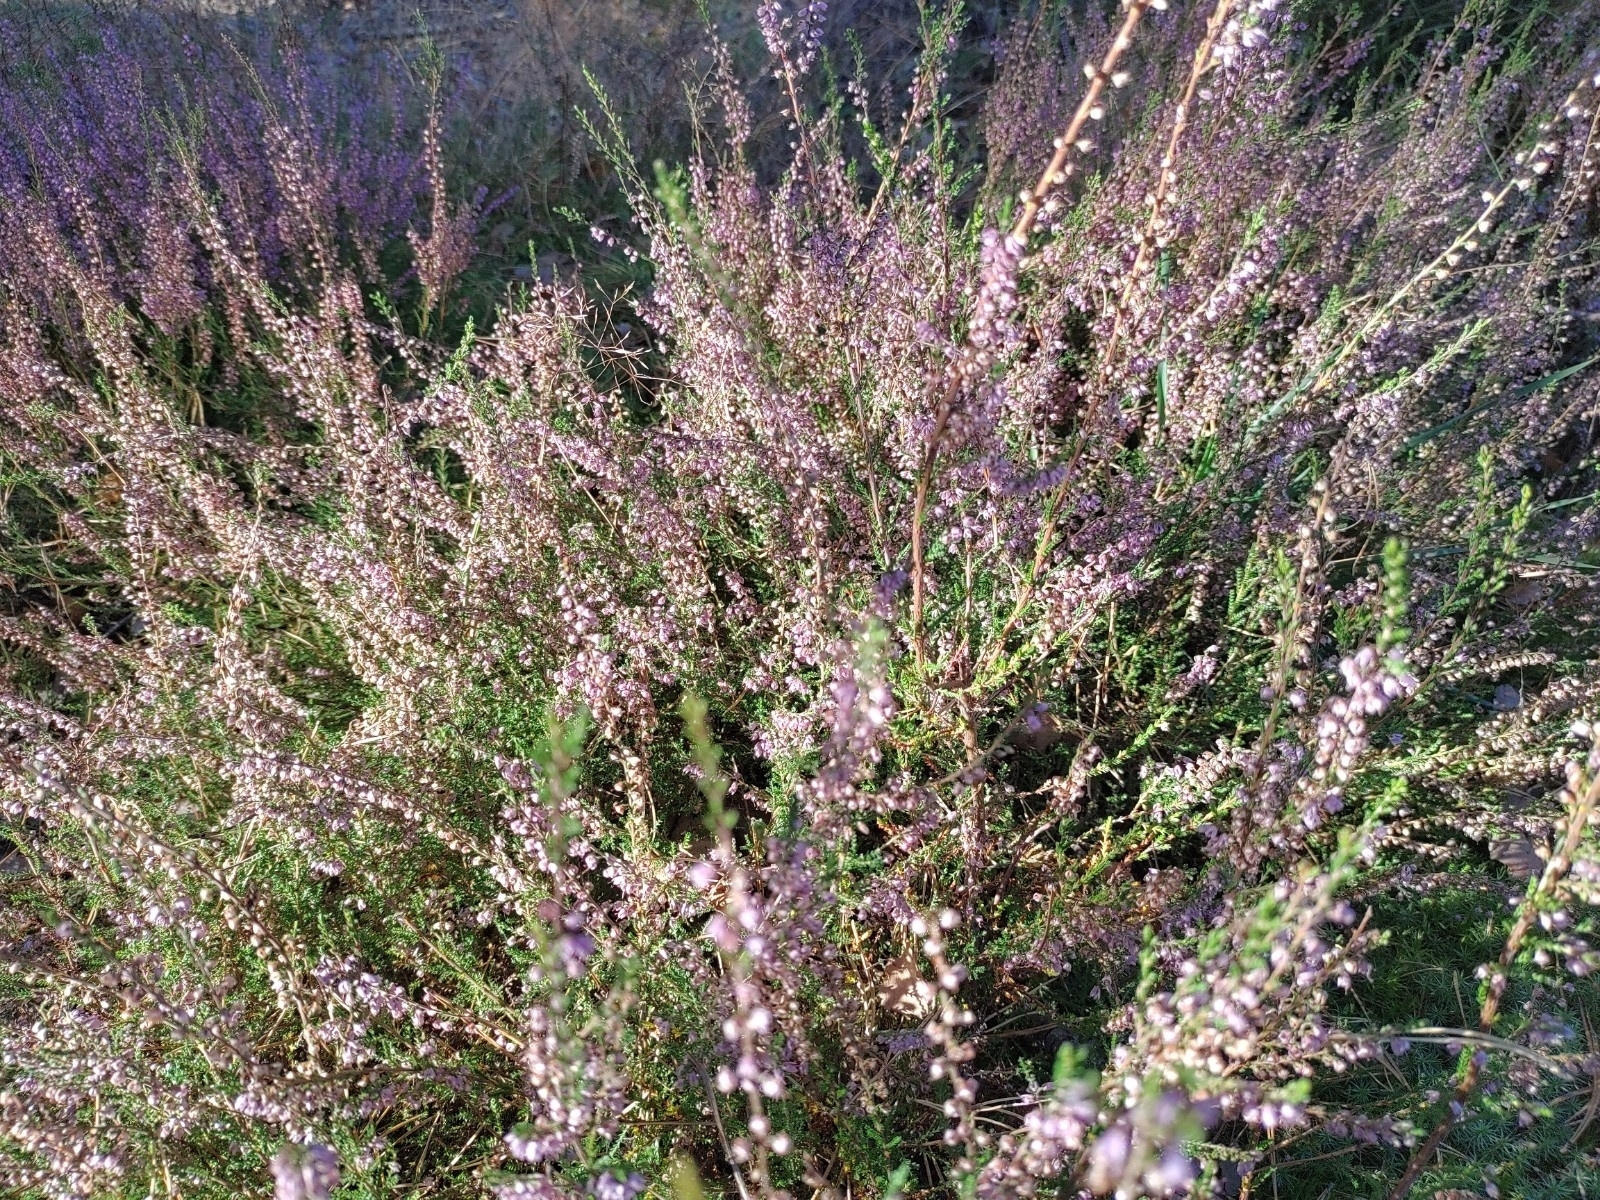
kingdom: Plantae
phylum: Tracheophyta
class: Magnoliopsida
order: Ericales
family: Ericaceae
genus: Calluna
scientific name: Calluna vulgaris
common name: Heather
